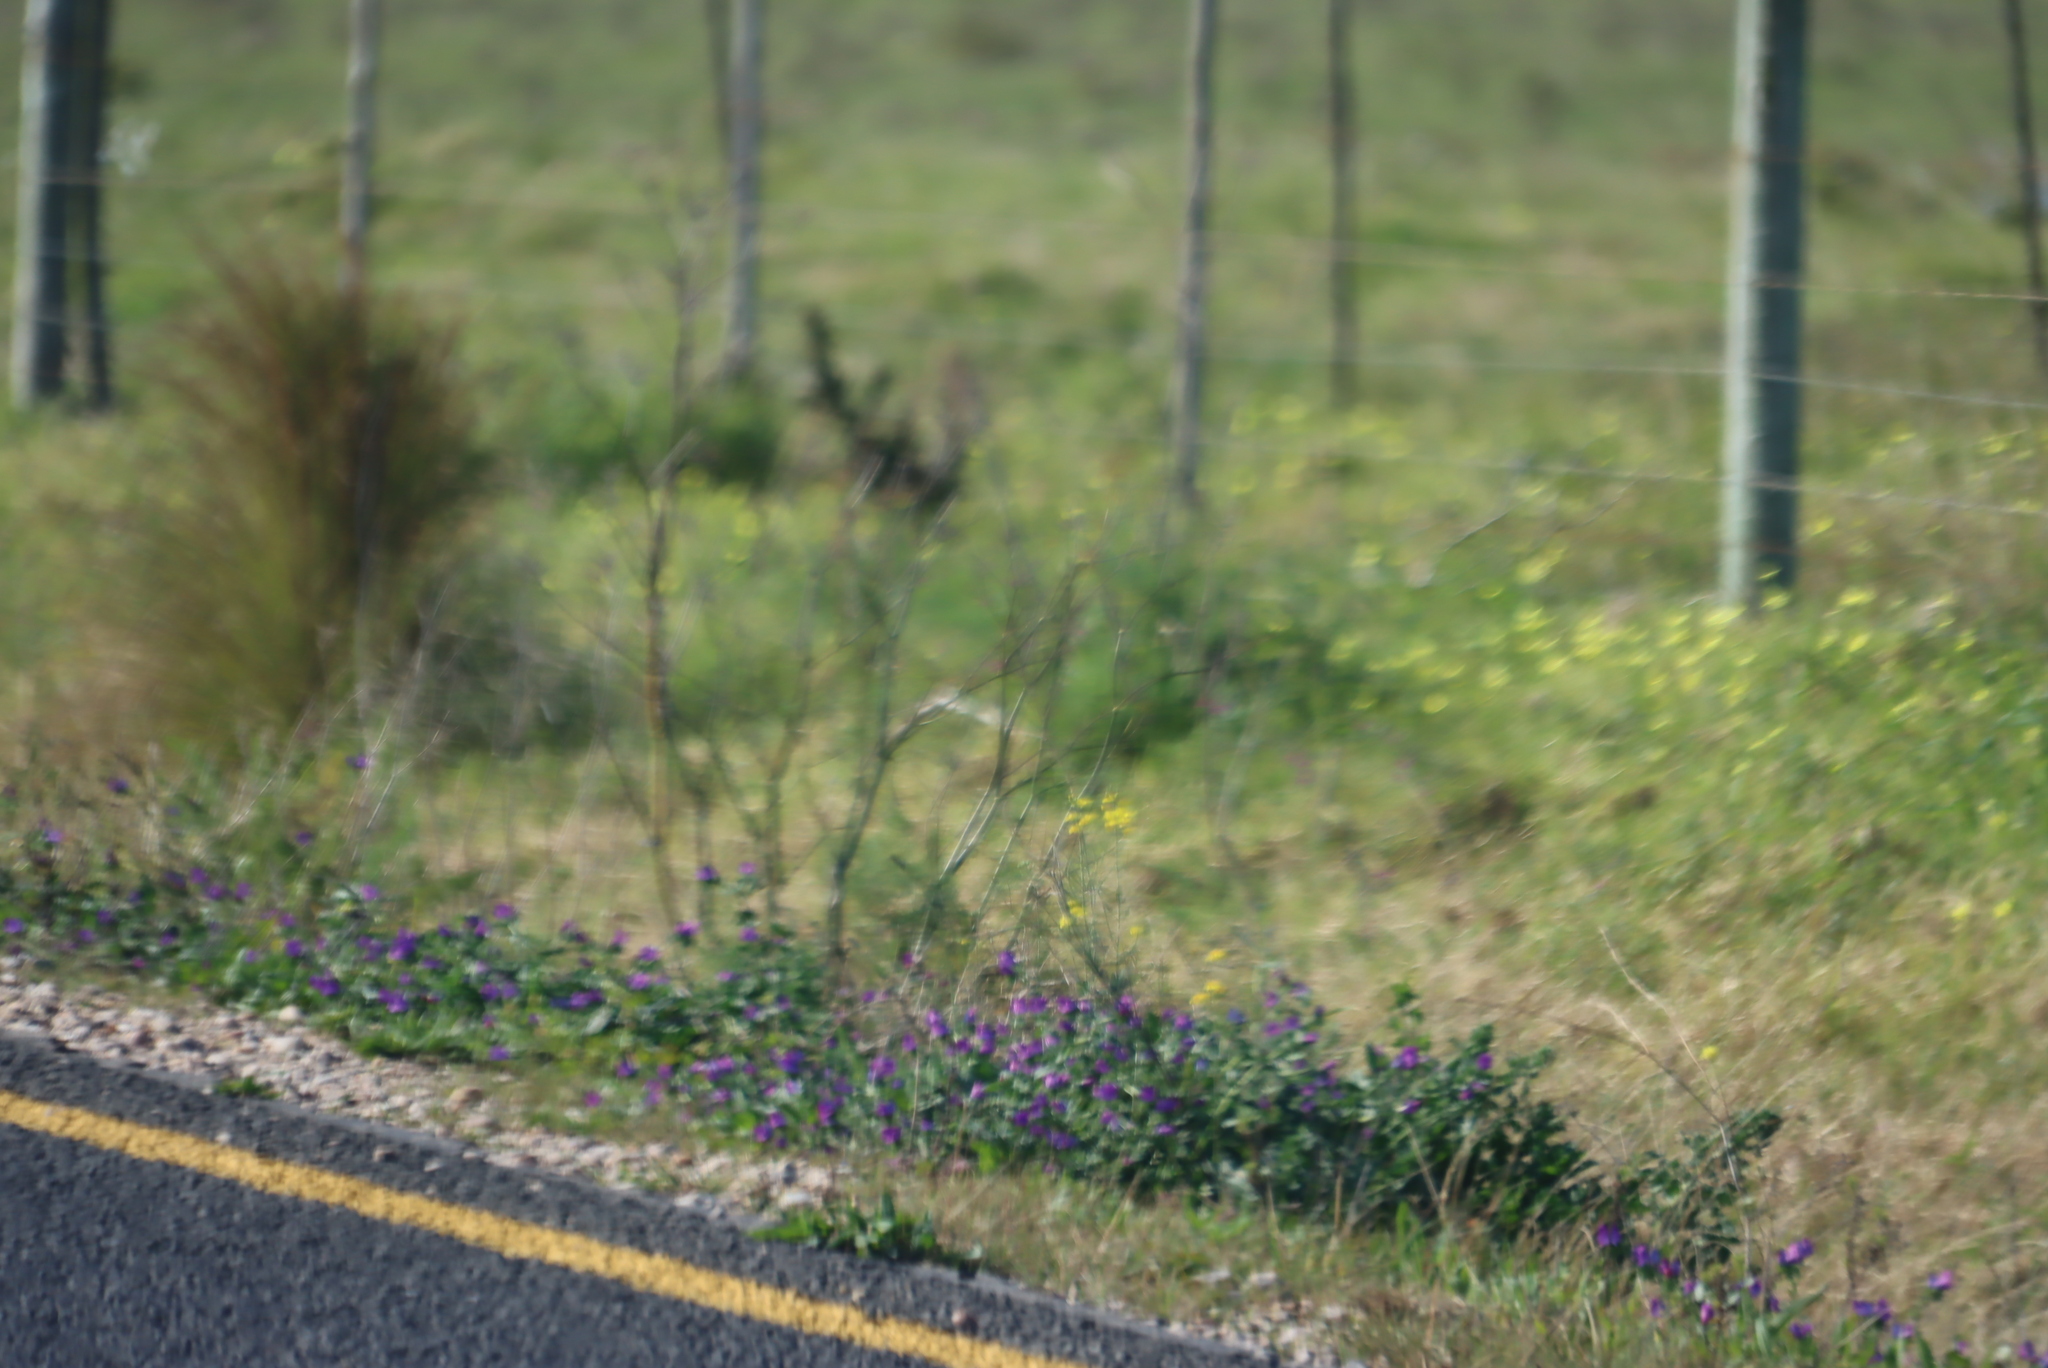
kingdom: Plantae
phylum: Tracheophyta
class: Magnoliopsida
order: Boraginales
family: Boraginaceae
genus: Echium
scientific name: Echium plantagineum
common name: Purple viper's-bugloss
